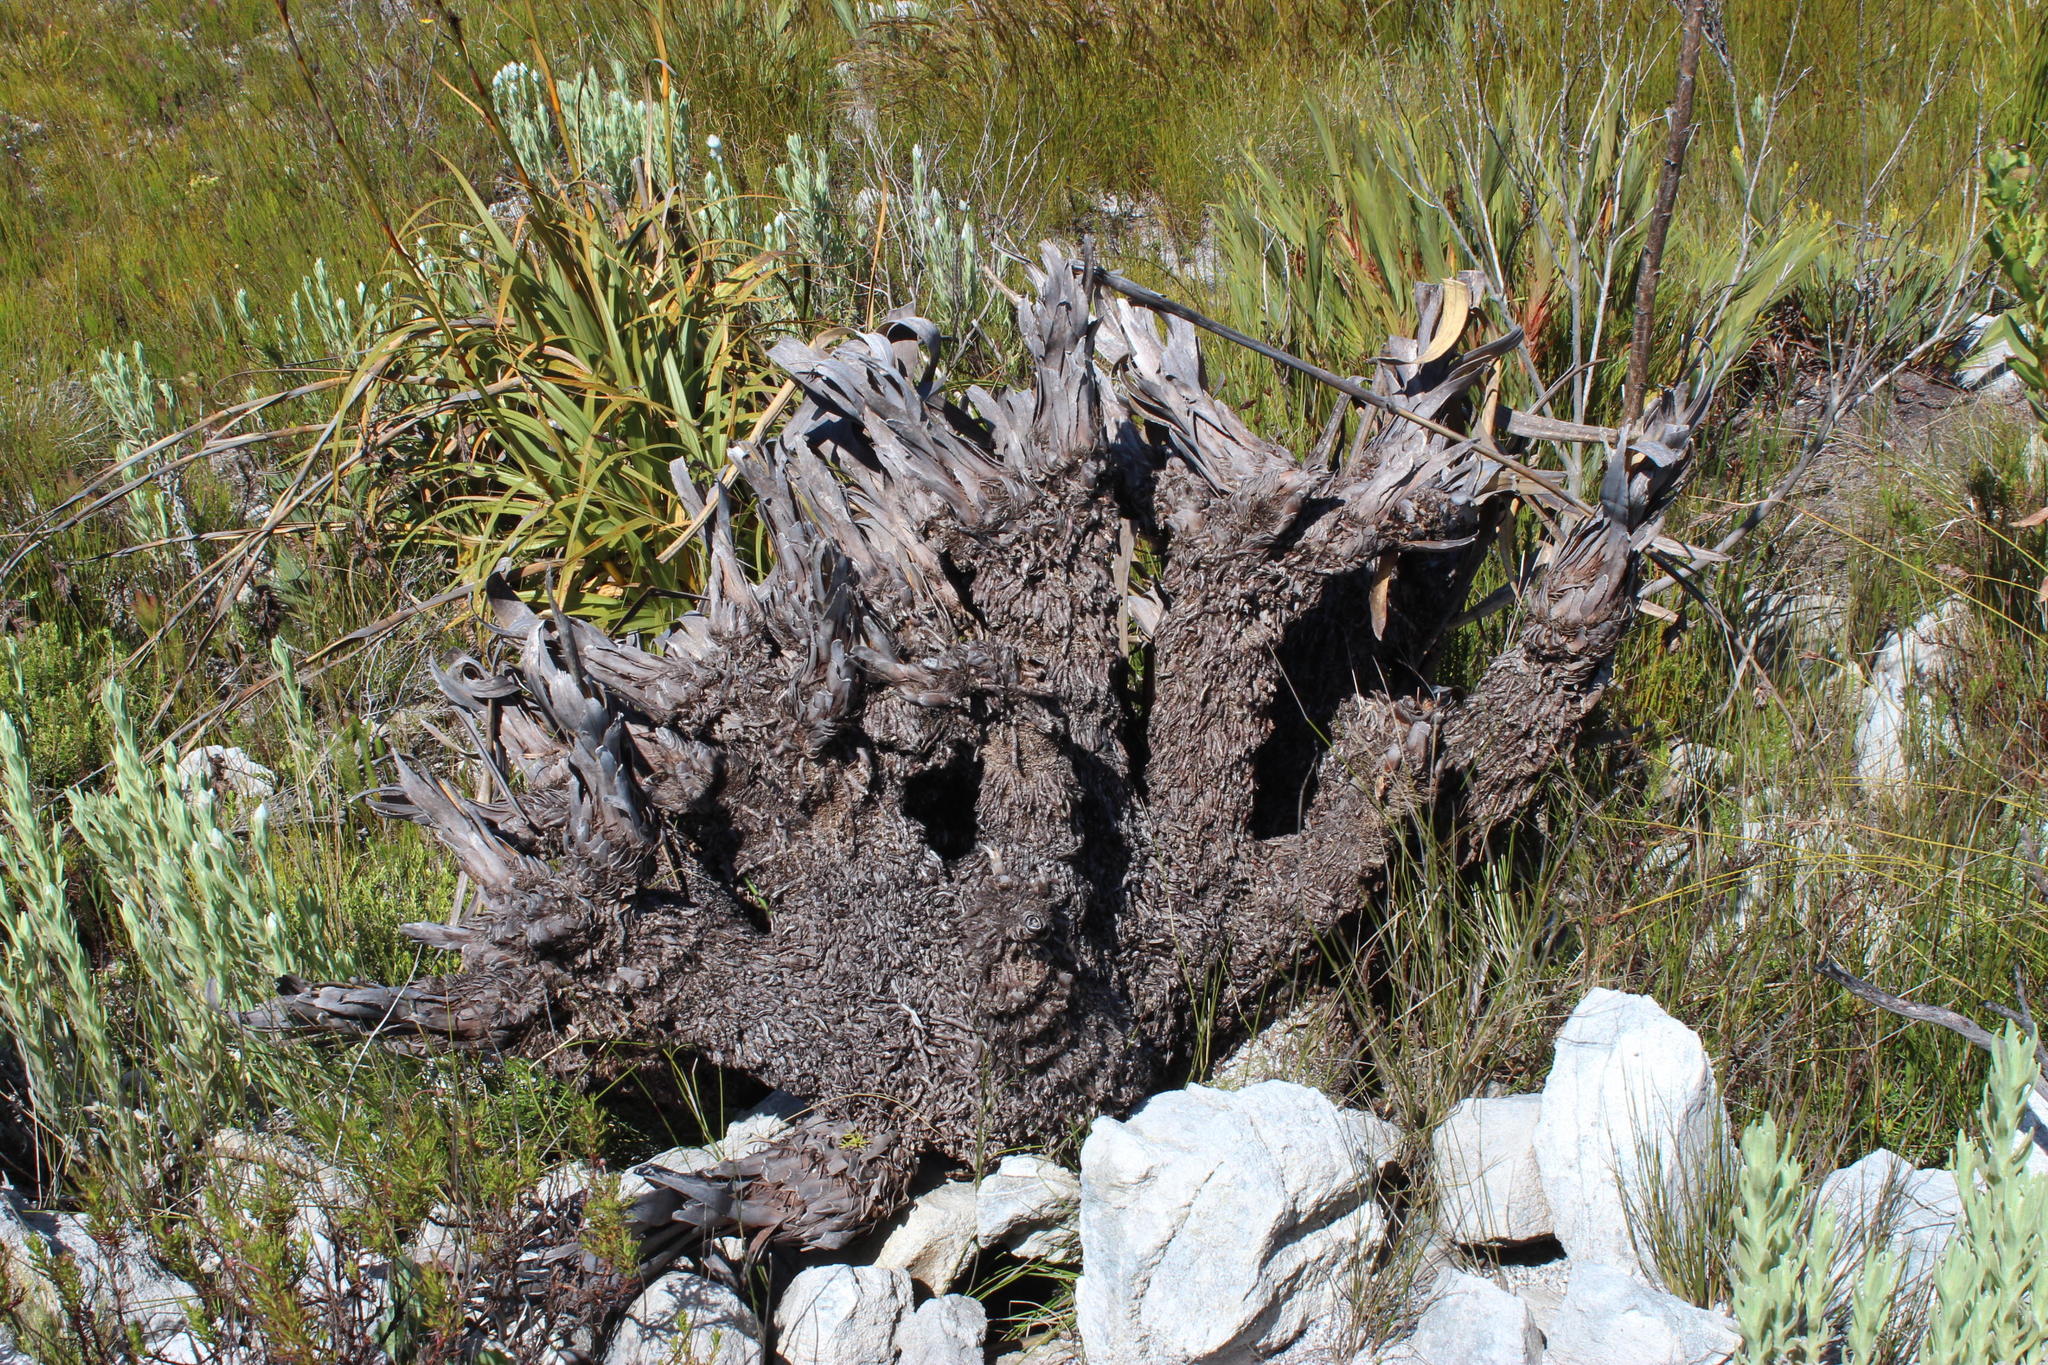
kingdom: Plantae
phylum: Tracheophyta
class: Liliopsida
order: Poales
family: Cyperaceae
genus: Tetraria
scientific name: Tetraria thermalis
